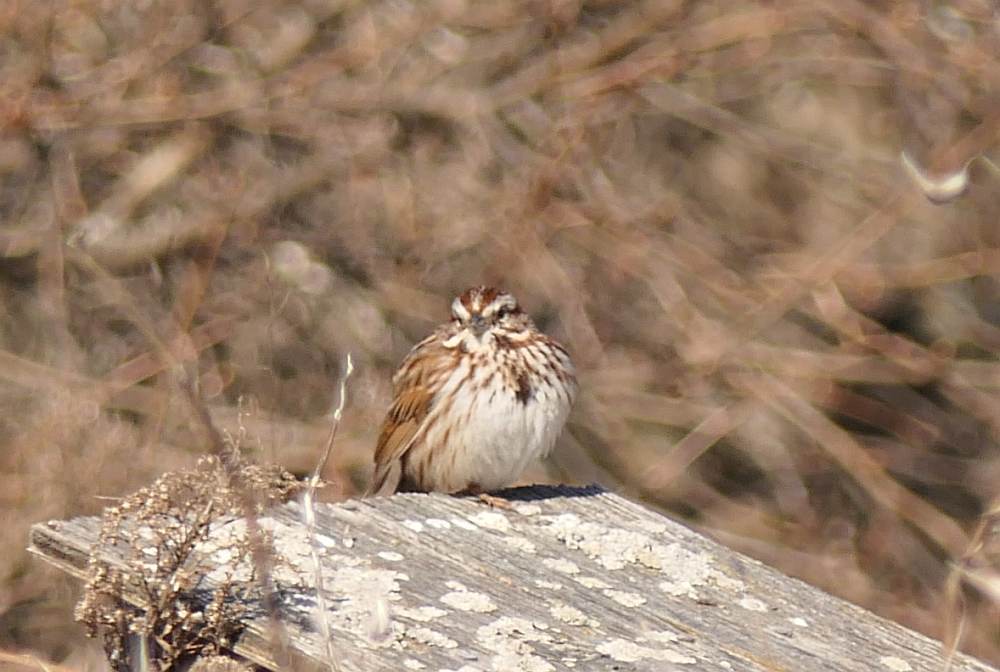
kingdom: Animalia
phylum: Chordata
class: Aves
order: Passeriformes
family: Passerellidae
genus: Melospiza
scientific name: Melospiza melodia
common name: Song sparrow
